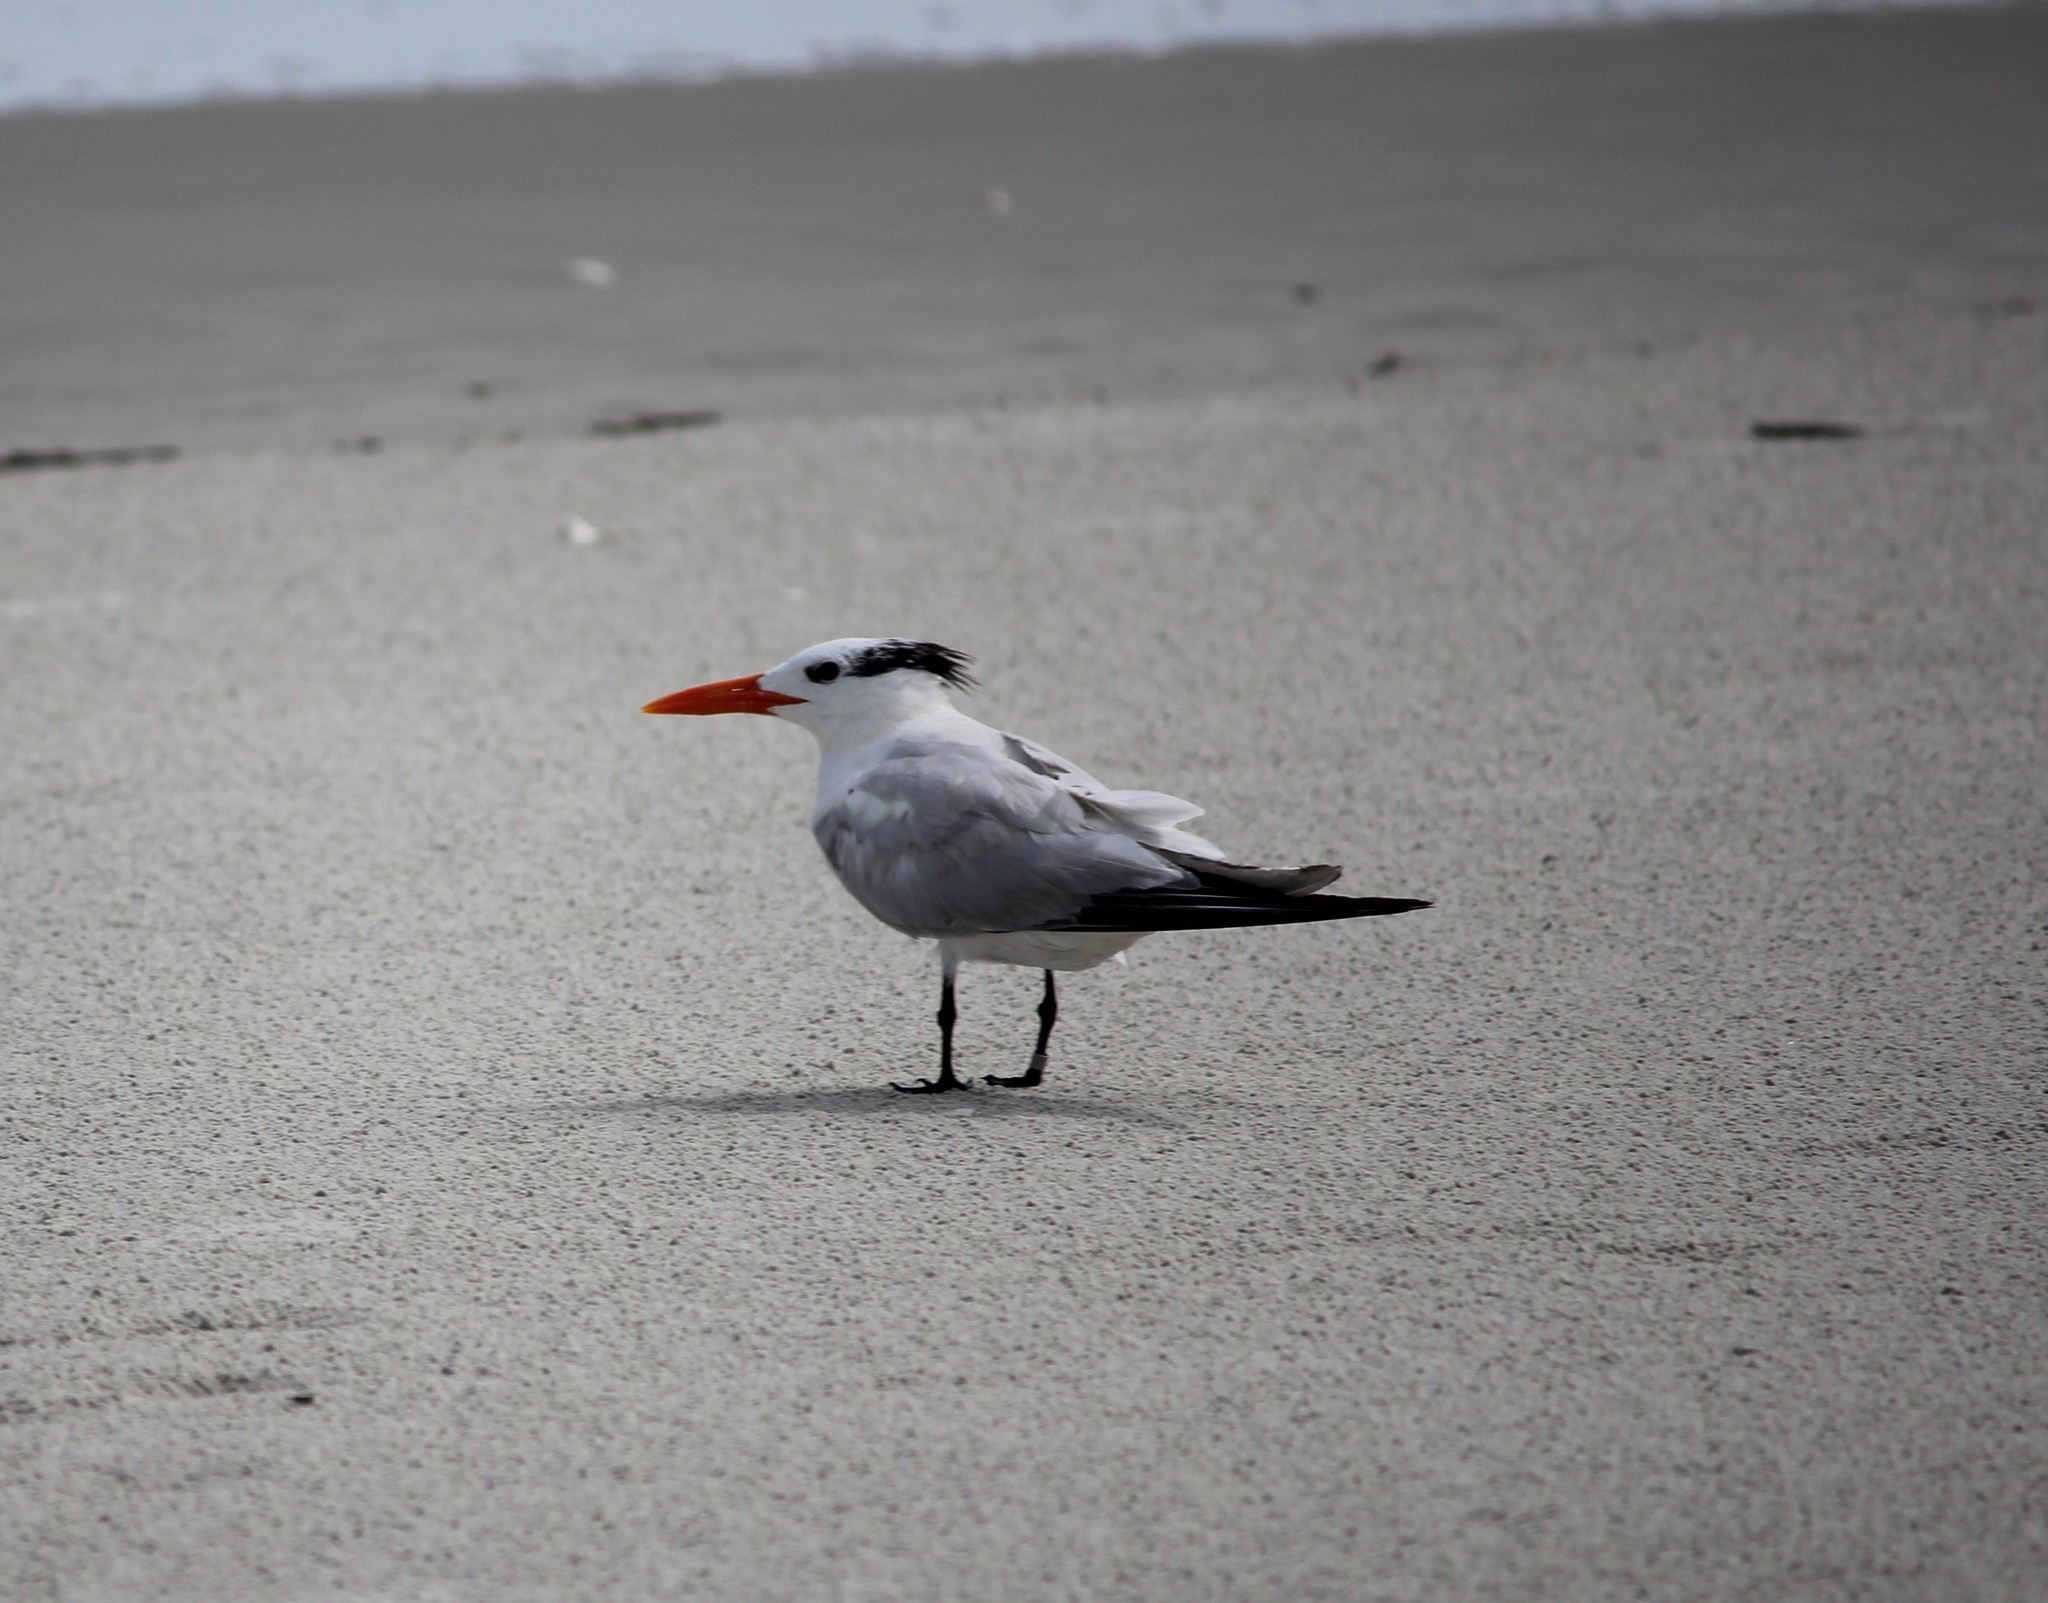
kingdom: Animalia
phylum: Chordata
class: Aves
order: Charadriiformes
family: Laridae
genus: Thalasseus
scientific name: Thalasseus maximus
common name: Royal tern
